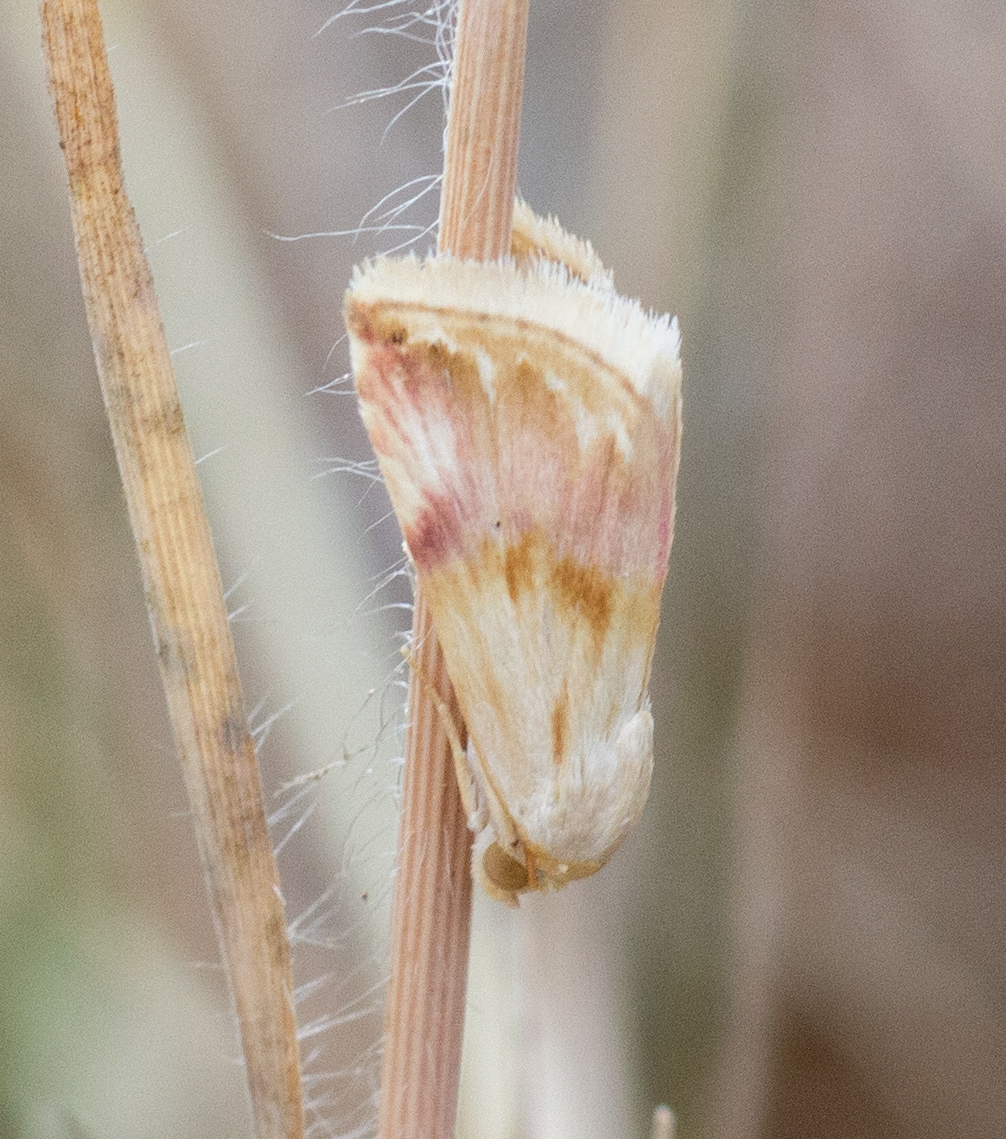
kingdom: Animalia
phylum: Arthropoda
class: Insecta
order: Lepidoptera
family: Noctuidae
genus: Eublemma
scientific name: Eublemma ostrina
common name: Purple marbled
